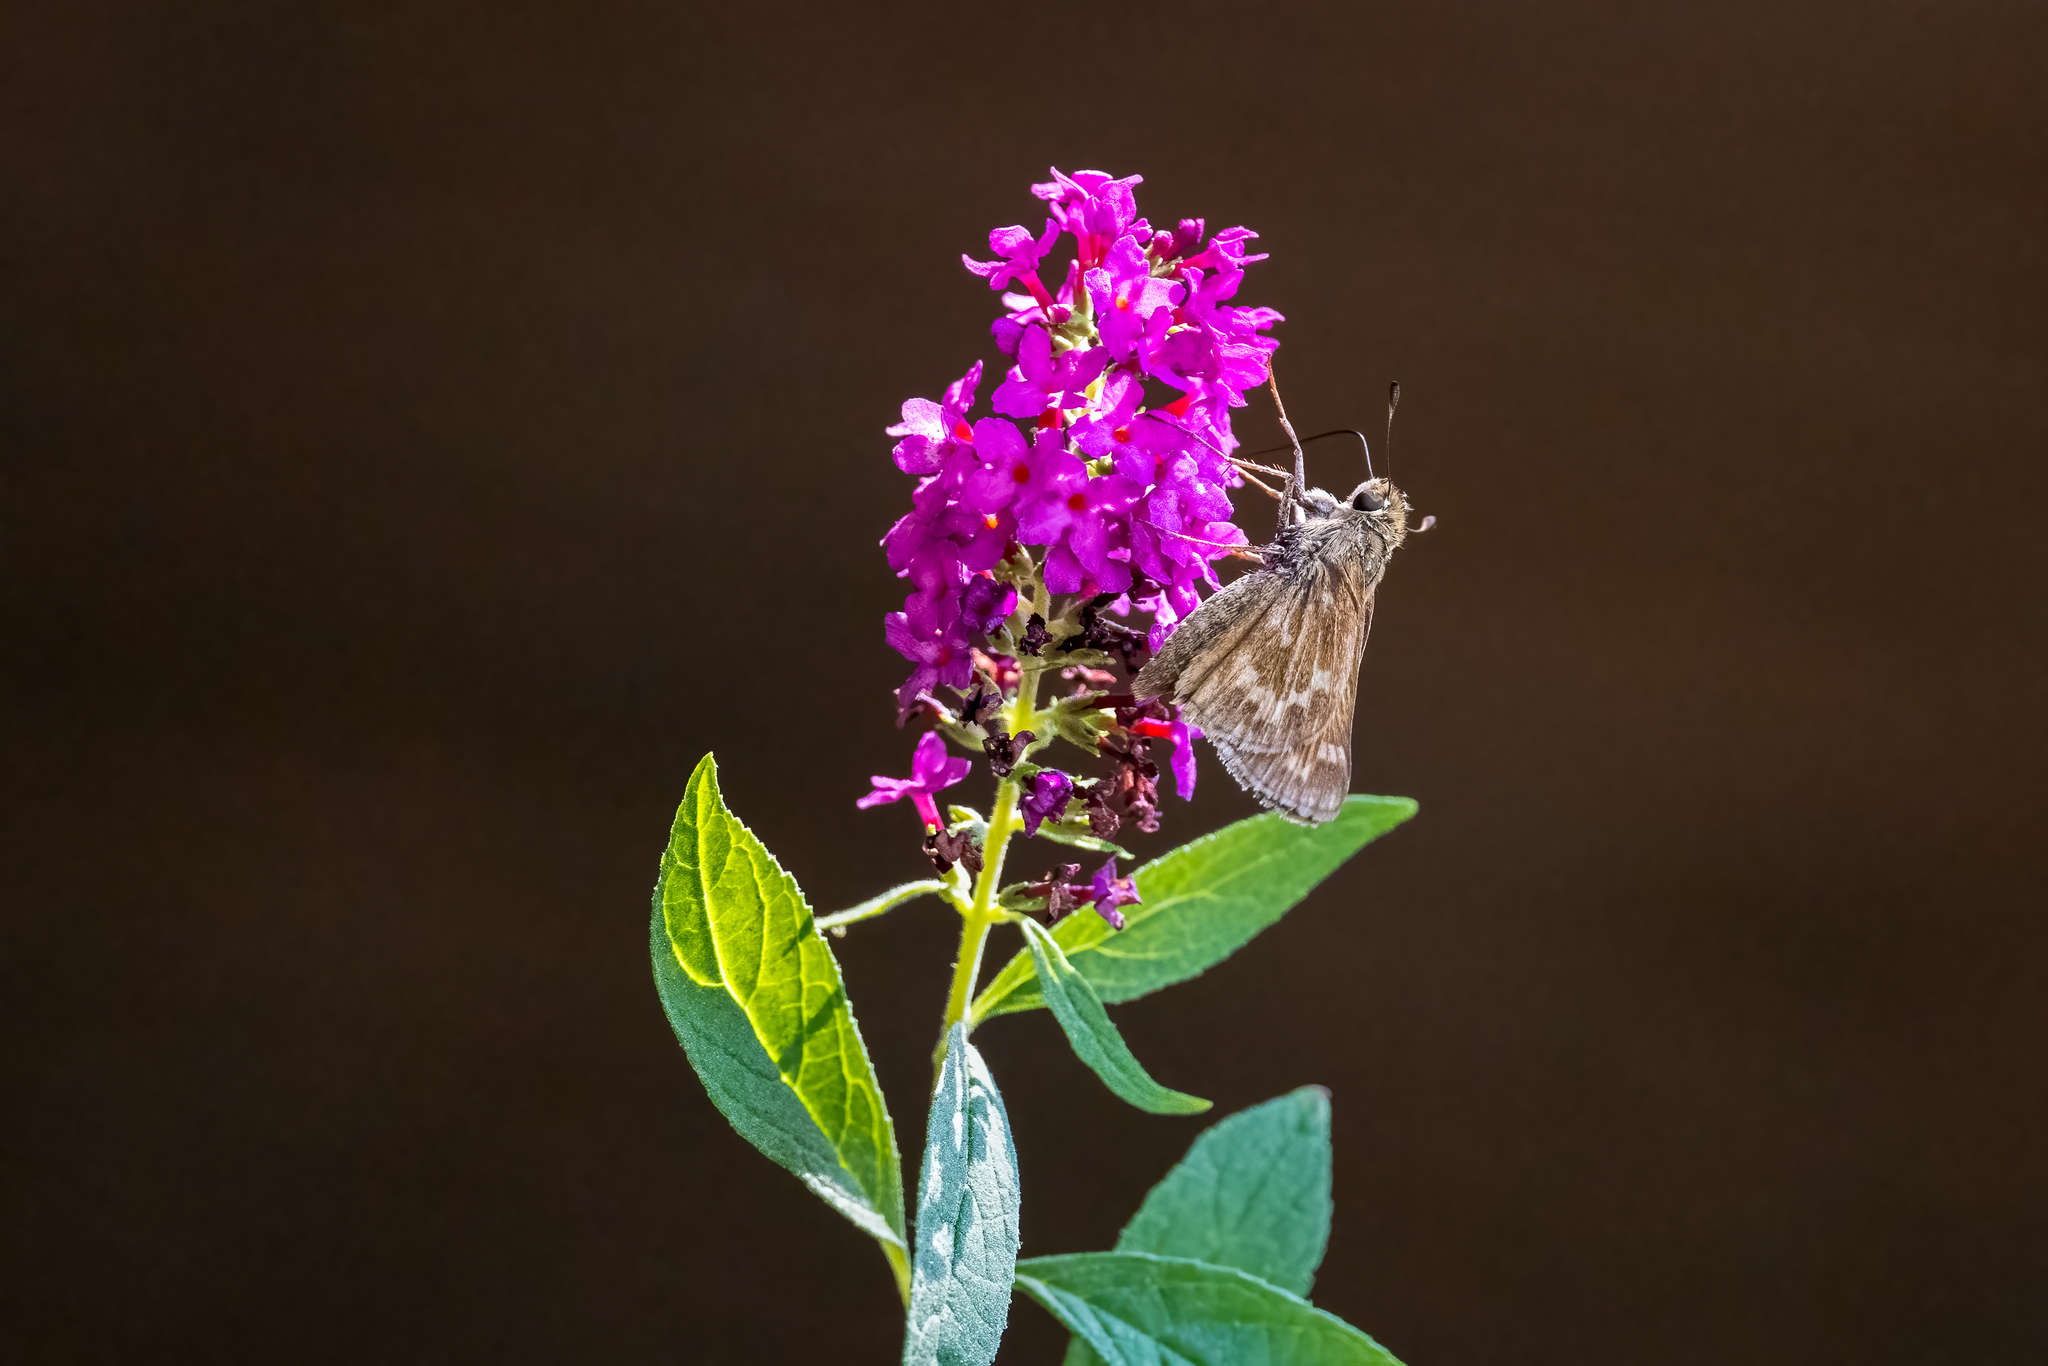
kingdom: Animalia
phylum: Arthropoda
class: Insecta
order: Lepidoptera
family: Hesperiidae
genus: Atalopedes
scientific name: Atalopedes campestris
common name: Sachem
